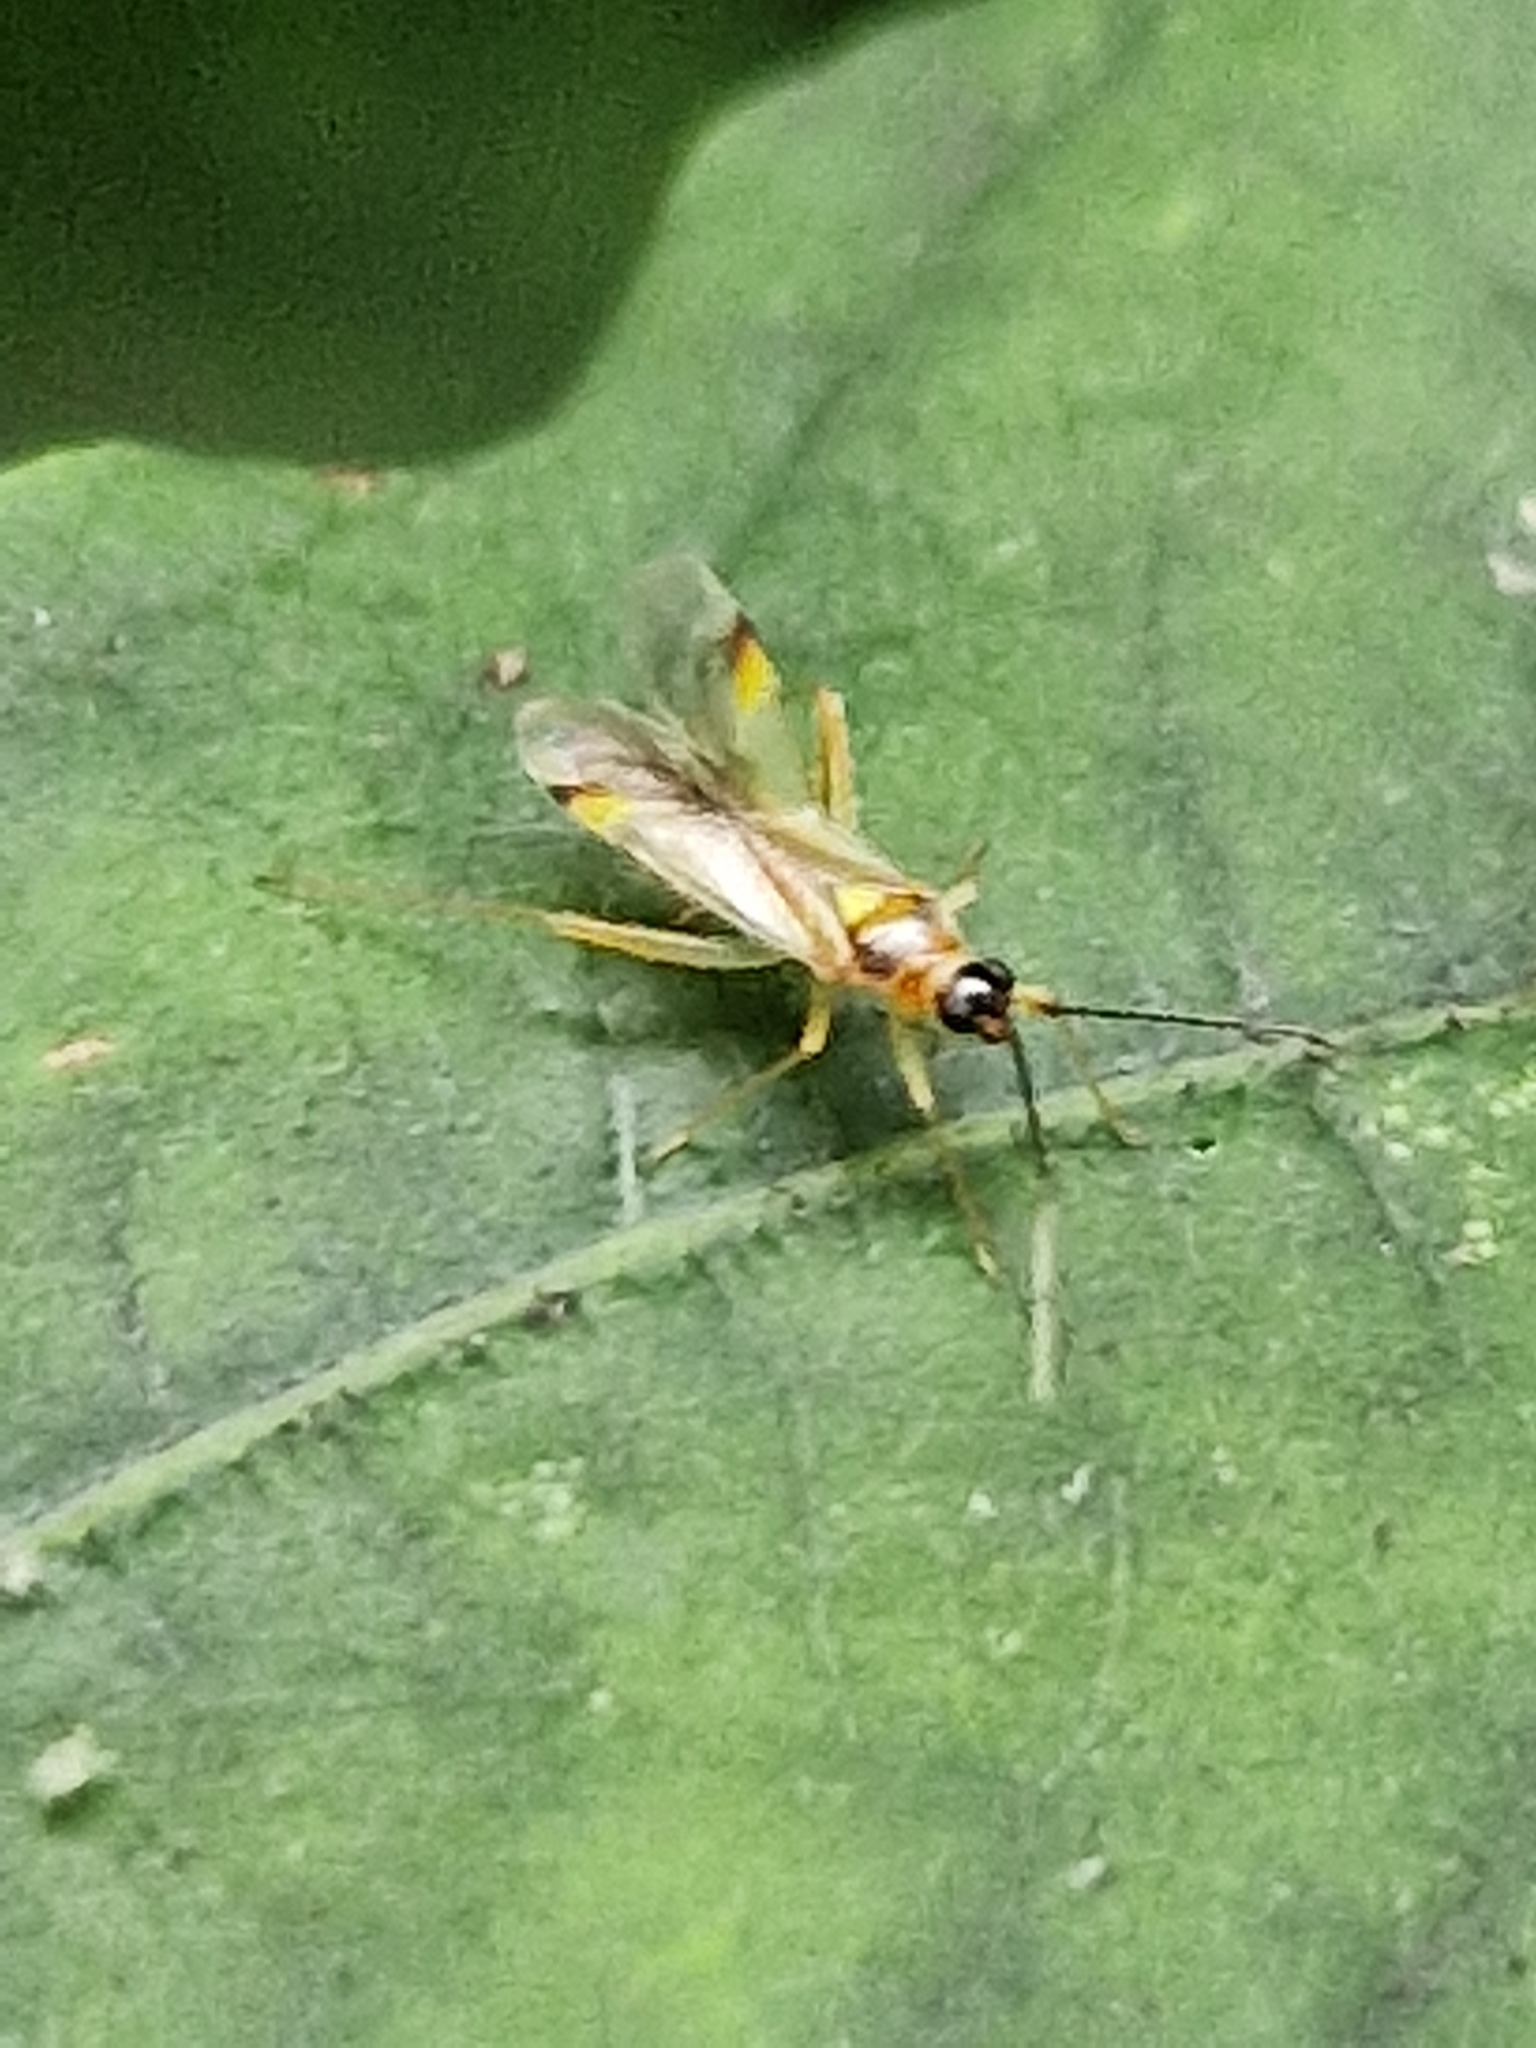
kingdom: Animalia
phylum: Arthropoda
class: Insecta
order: Hemiptera
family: Miridae
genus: Campyloneura
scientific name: Campyloneura virgula
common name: Predatory bug
